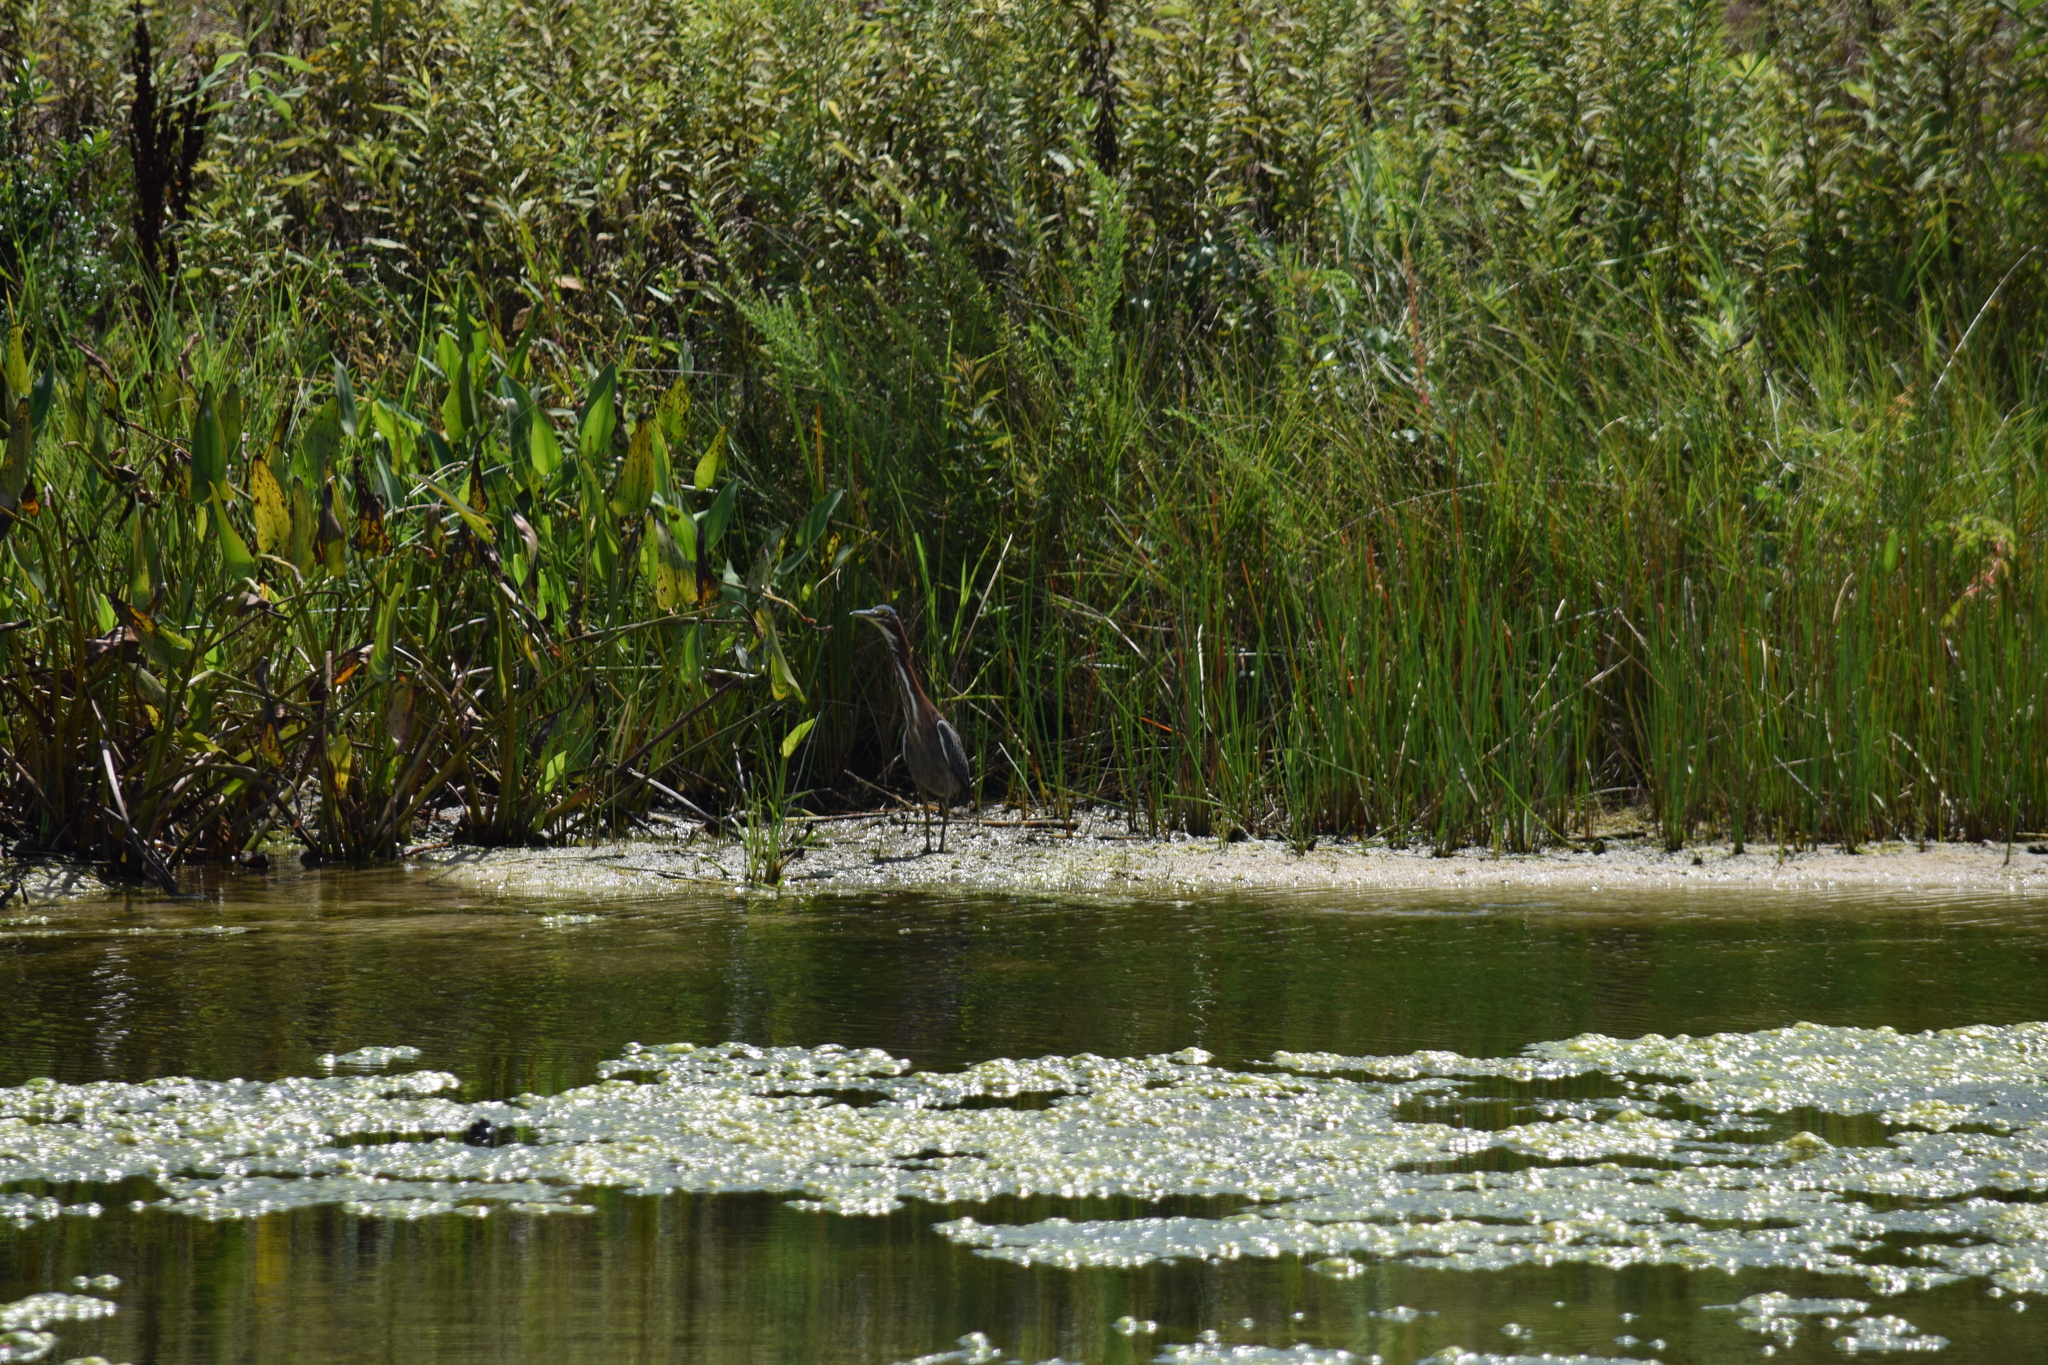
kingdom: Animalia
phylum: Chordata
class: Aves
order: Pelecaniformes
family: Ardeidae
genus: Butorides
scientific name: Butorides virescens
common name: Green heron
